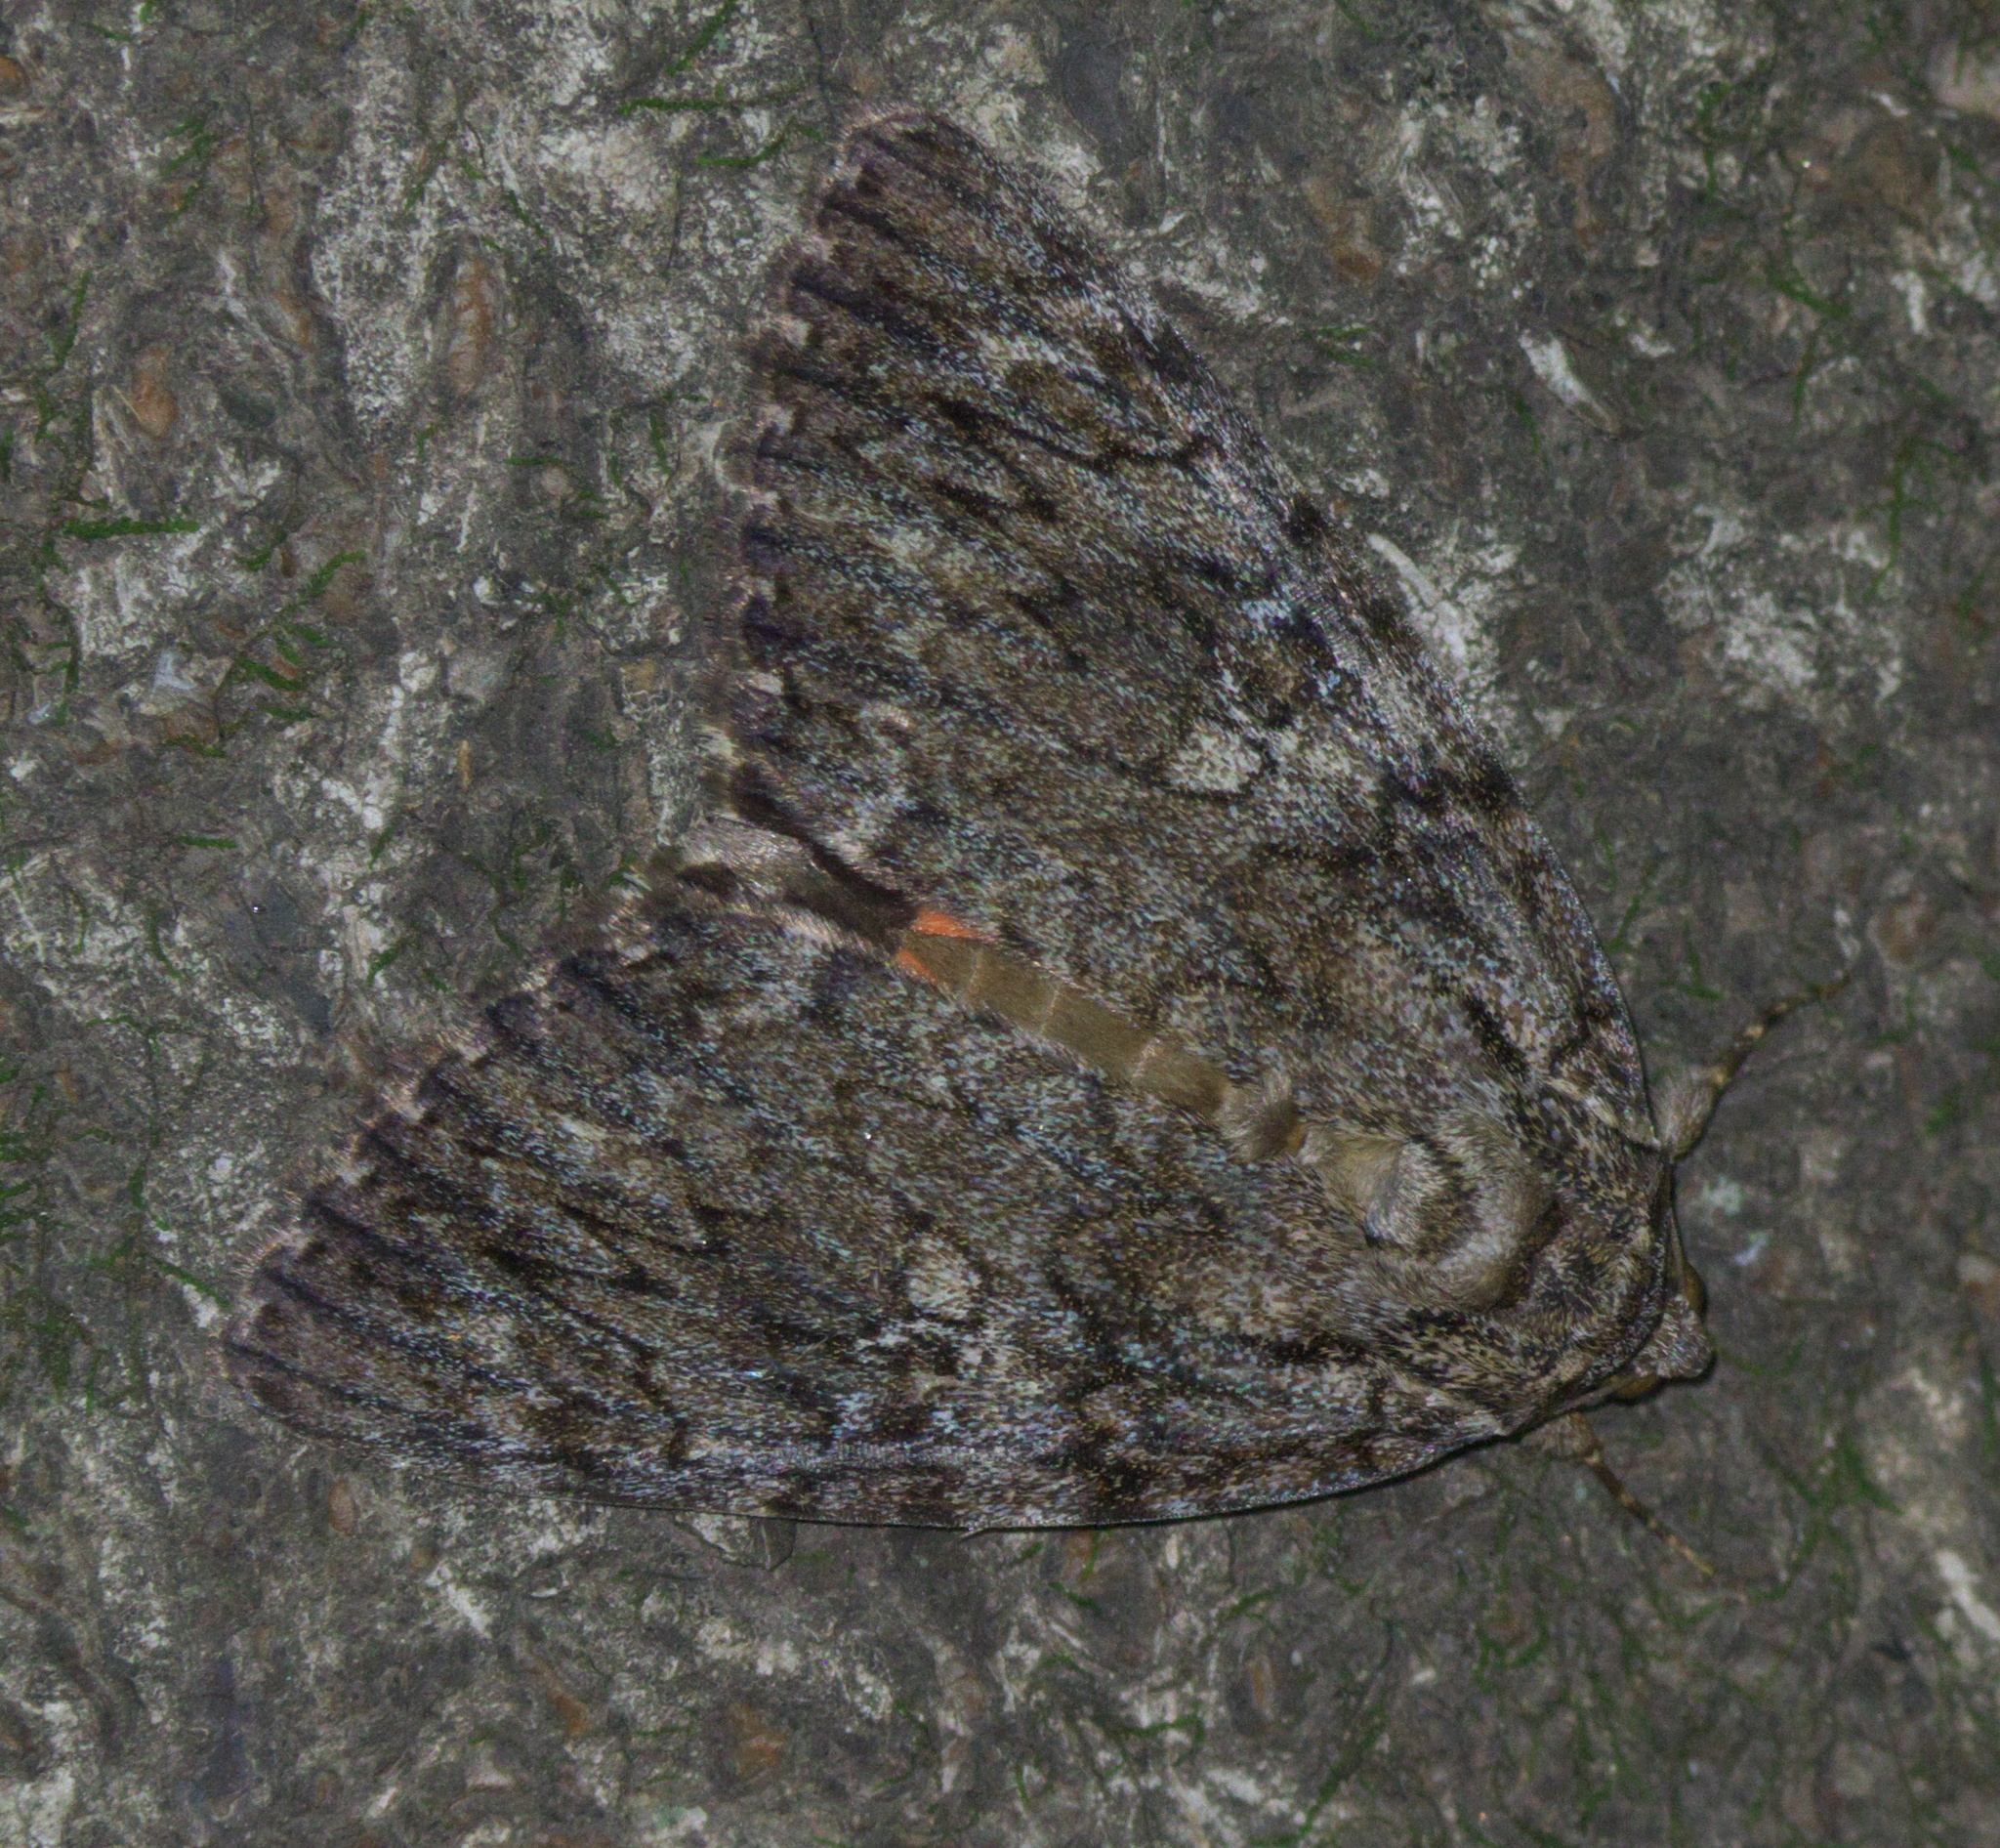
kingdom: Animalia
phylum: Arthropoda
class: Insecta
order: Lepidoptera
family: Erebidae
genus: Catocala
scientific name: Catocala ilia
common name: Ilia underwing
